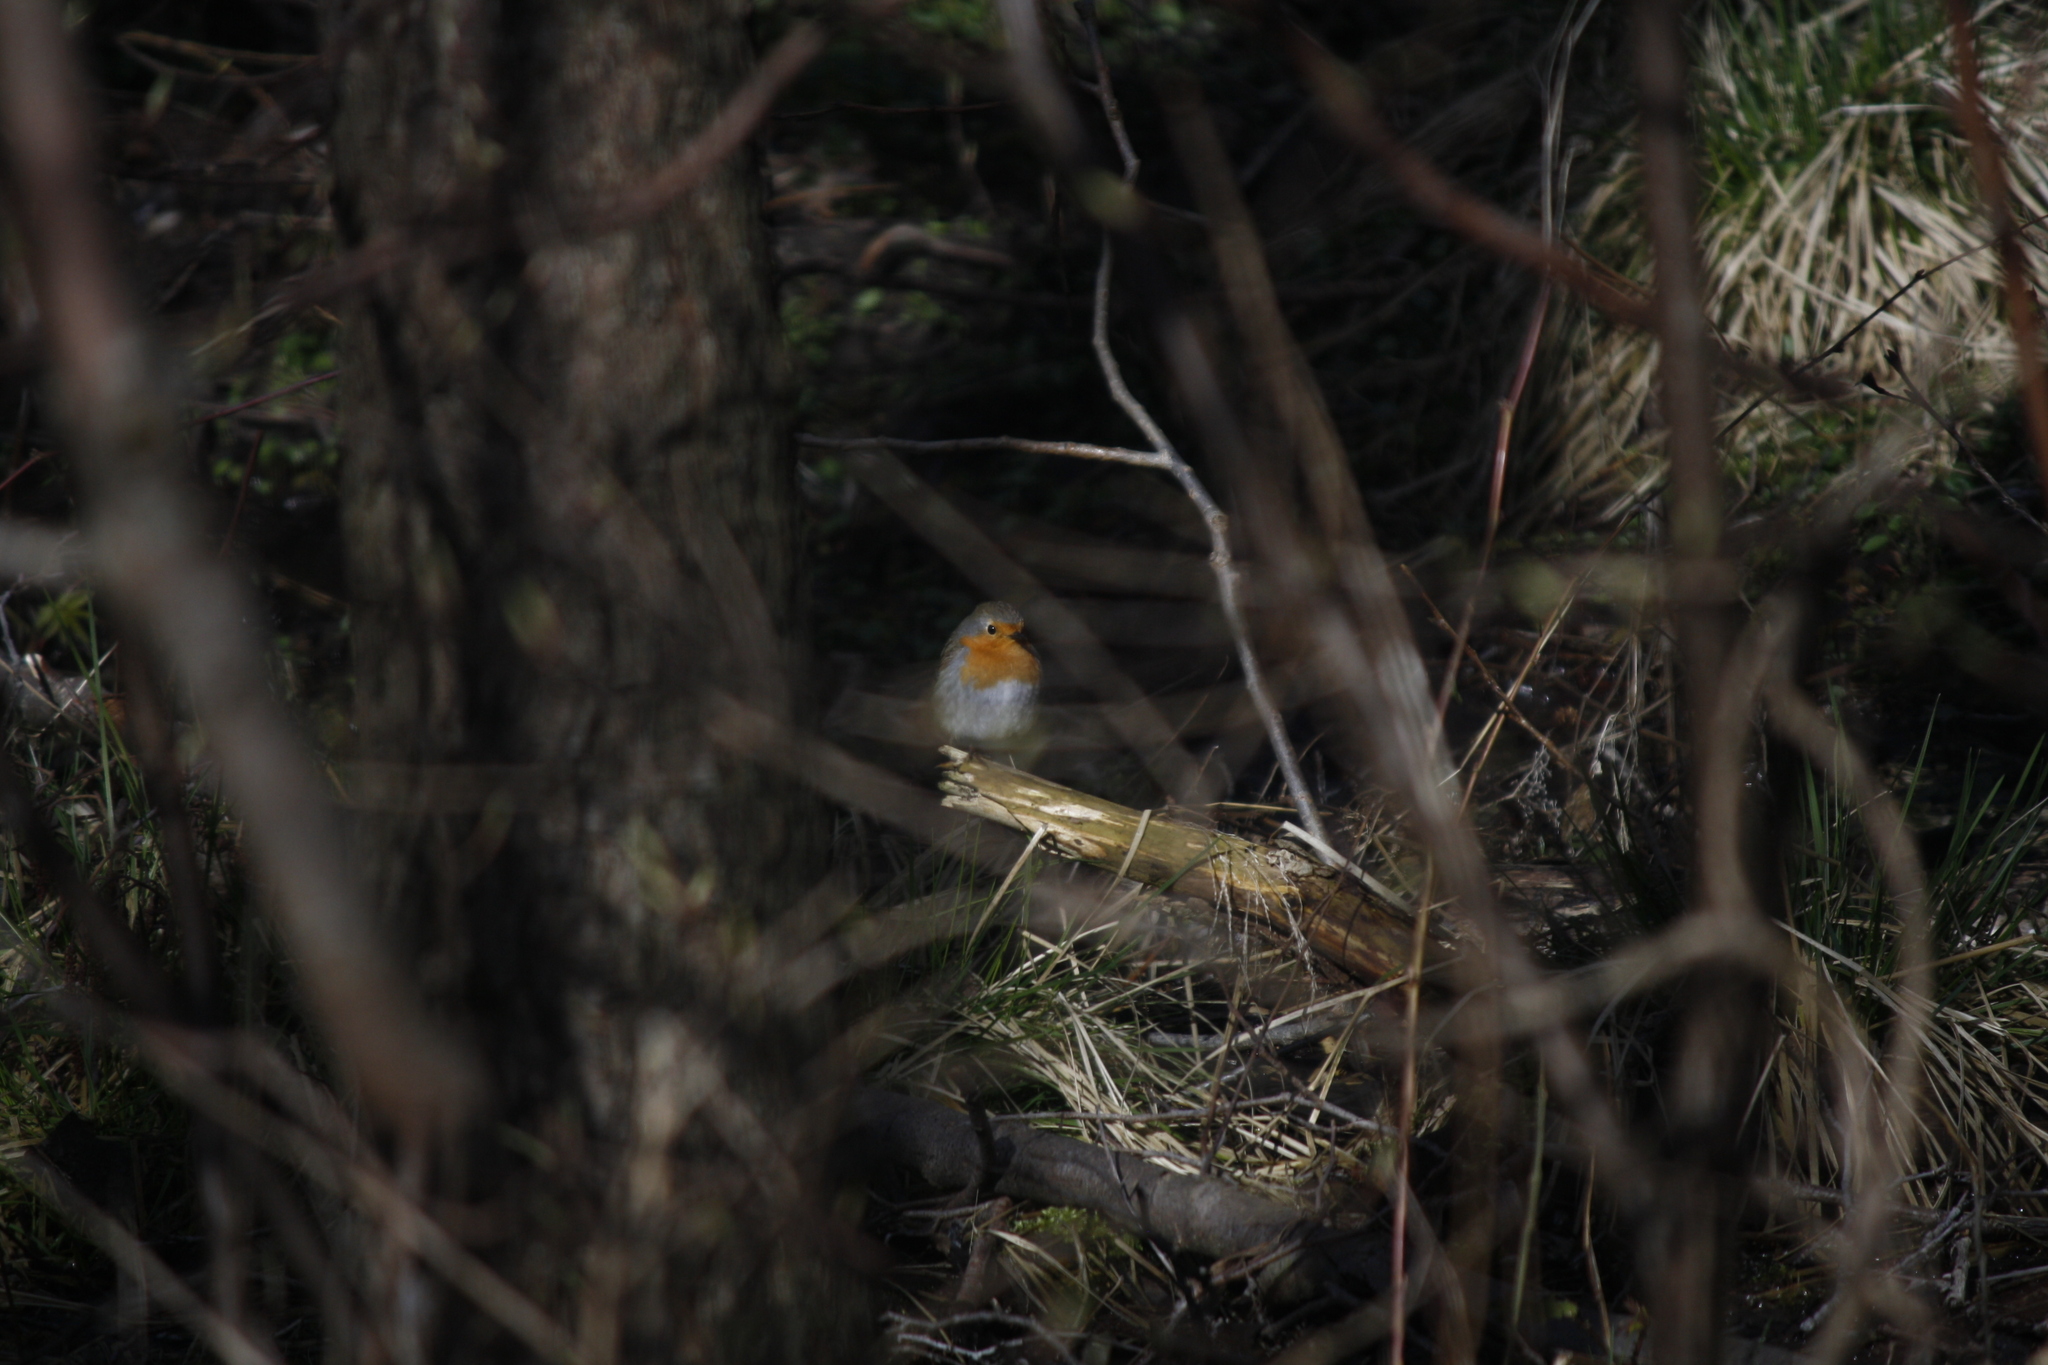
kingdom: Animalia
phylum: Chordata
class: Aves
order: Passeriformes
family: Muscicapidae
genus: Erithacus
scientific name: Erithacus rubecula
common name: European robin
